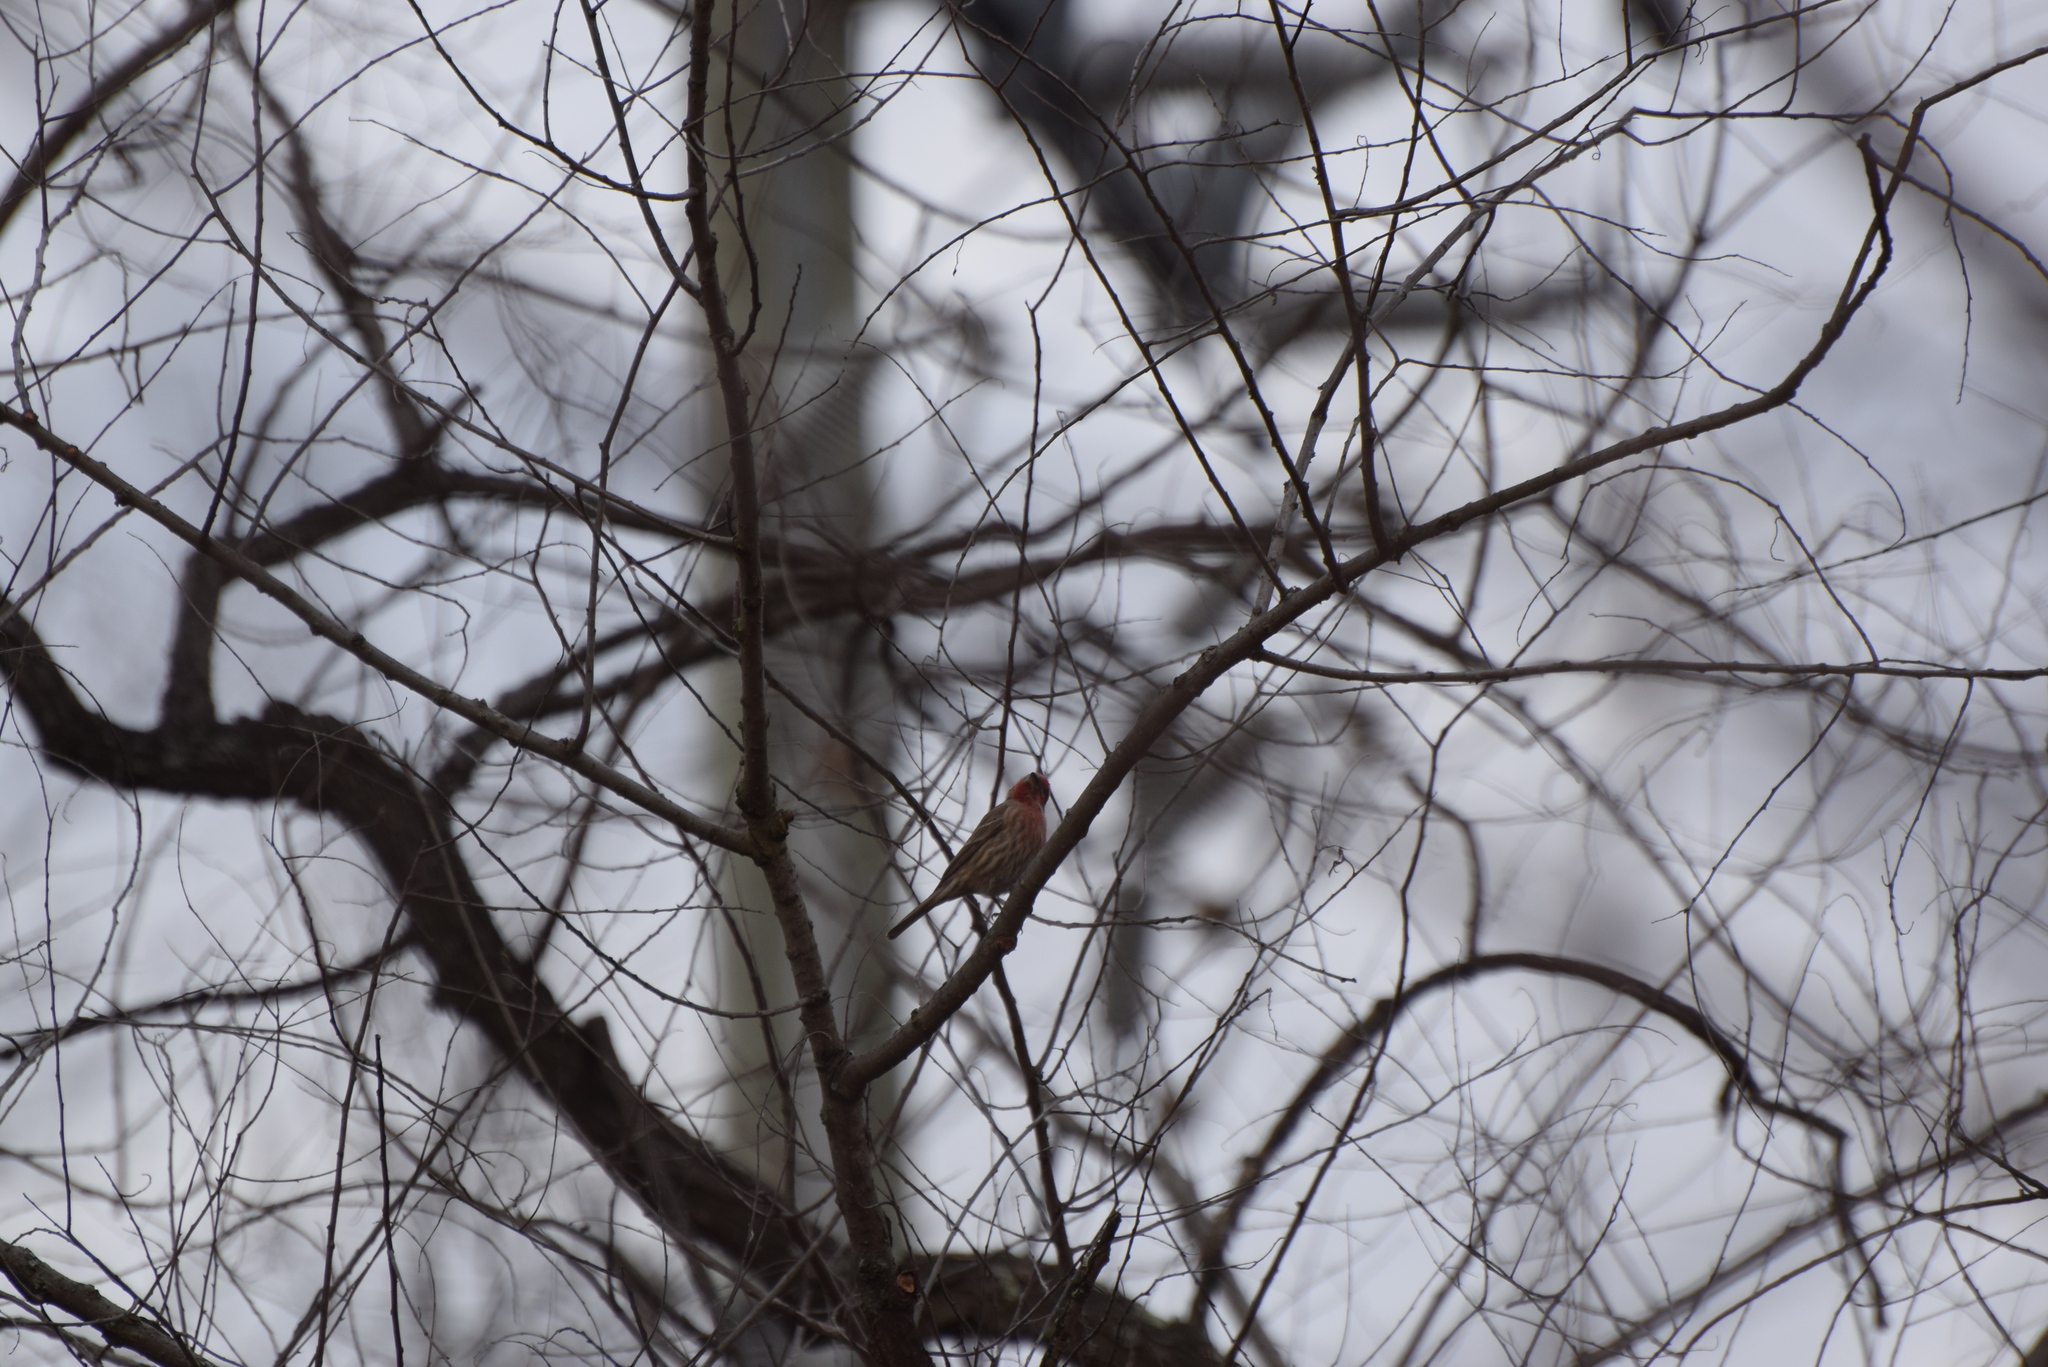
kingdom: Animalia
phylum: Chordata
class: Aves
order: Passeriformes
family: Fringillidae
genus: Haemorhous
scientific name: Haemorhous mexicanus
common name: House finch
